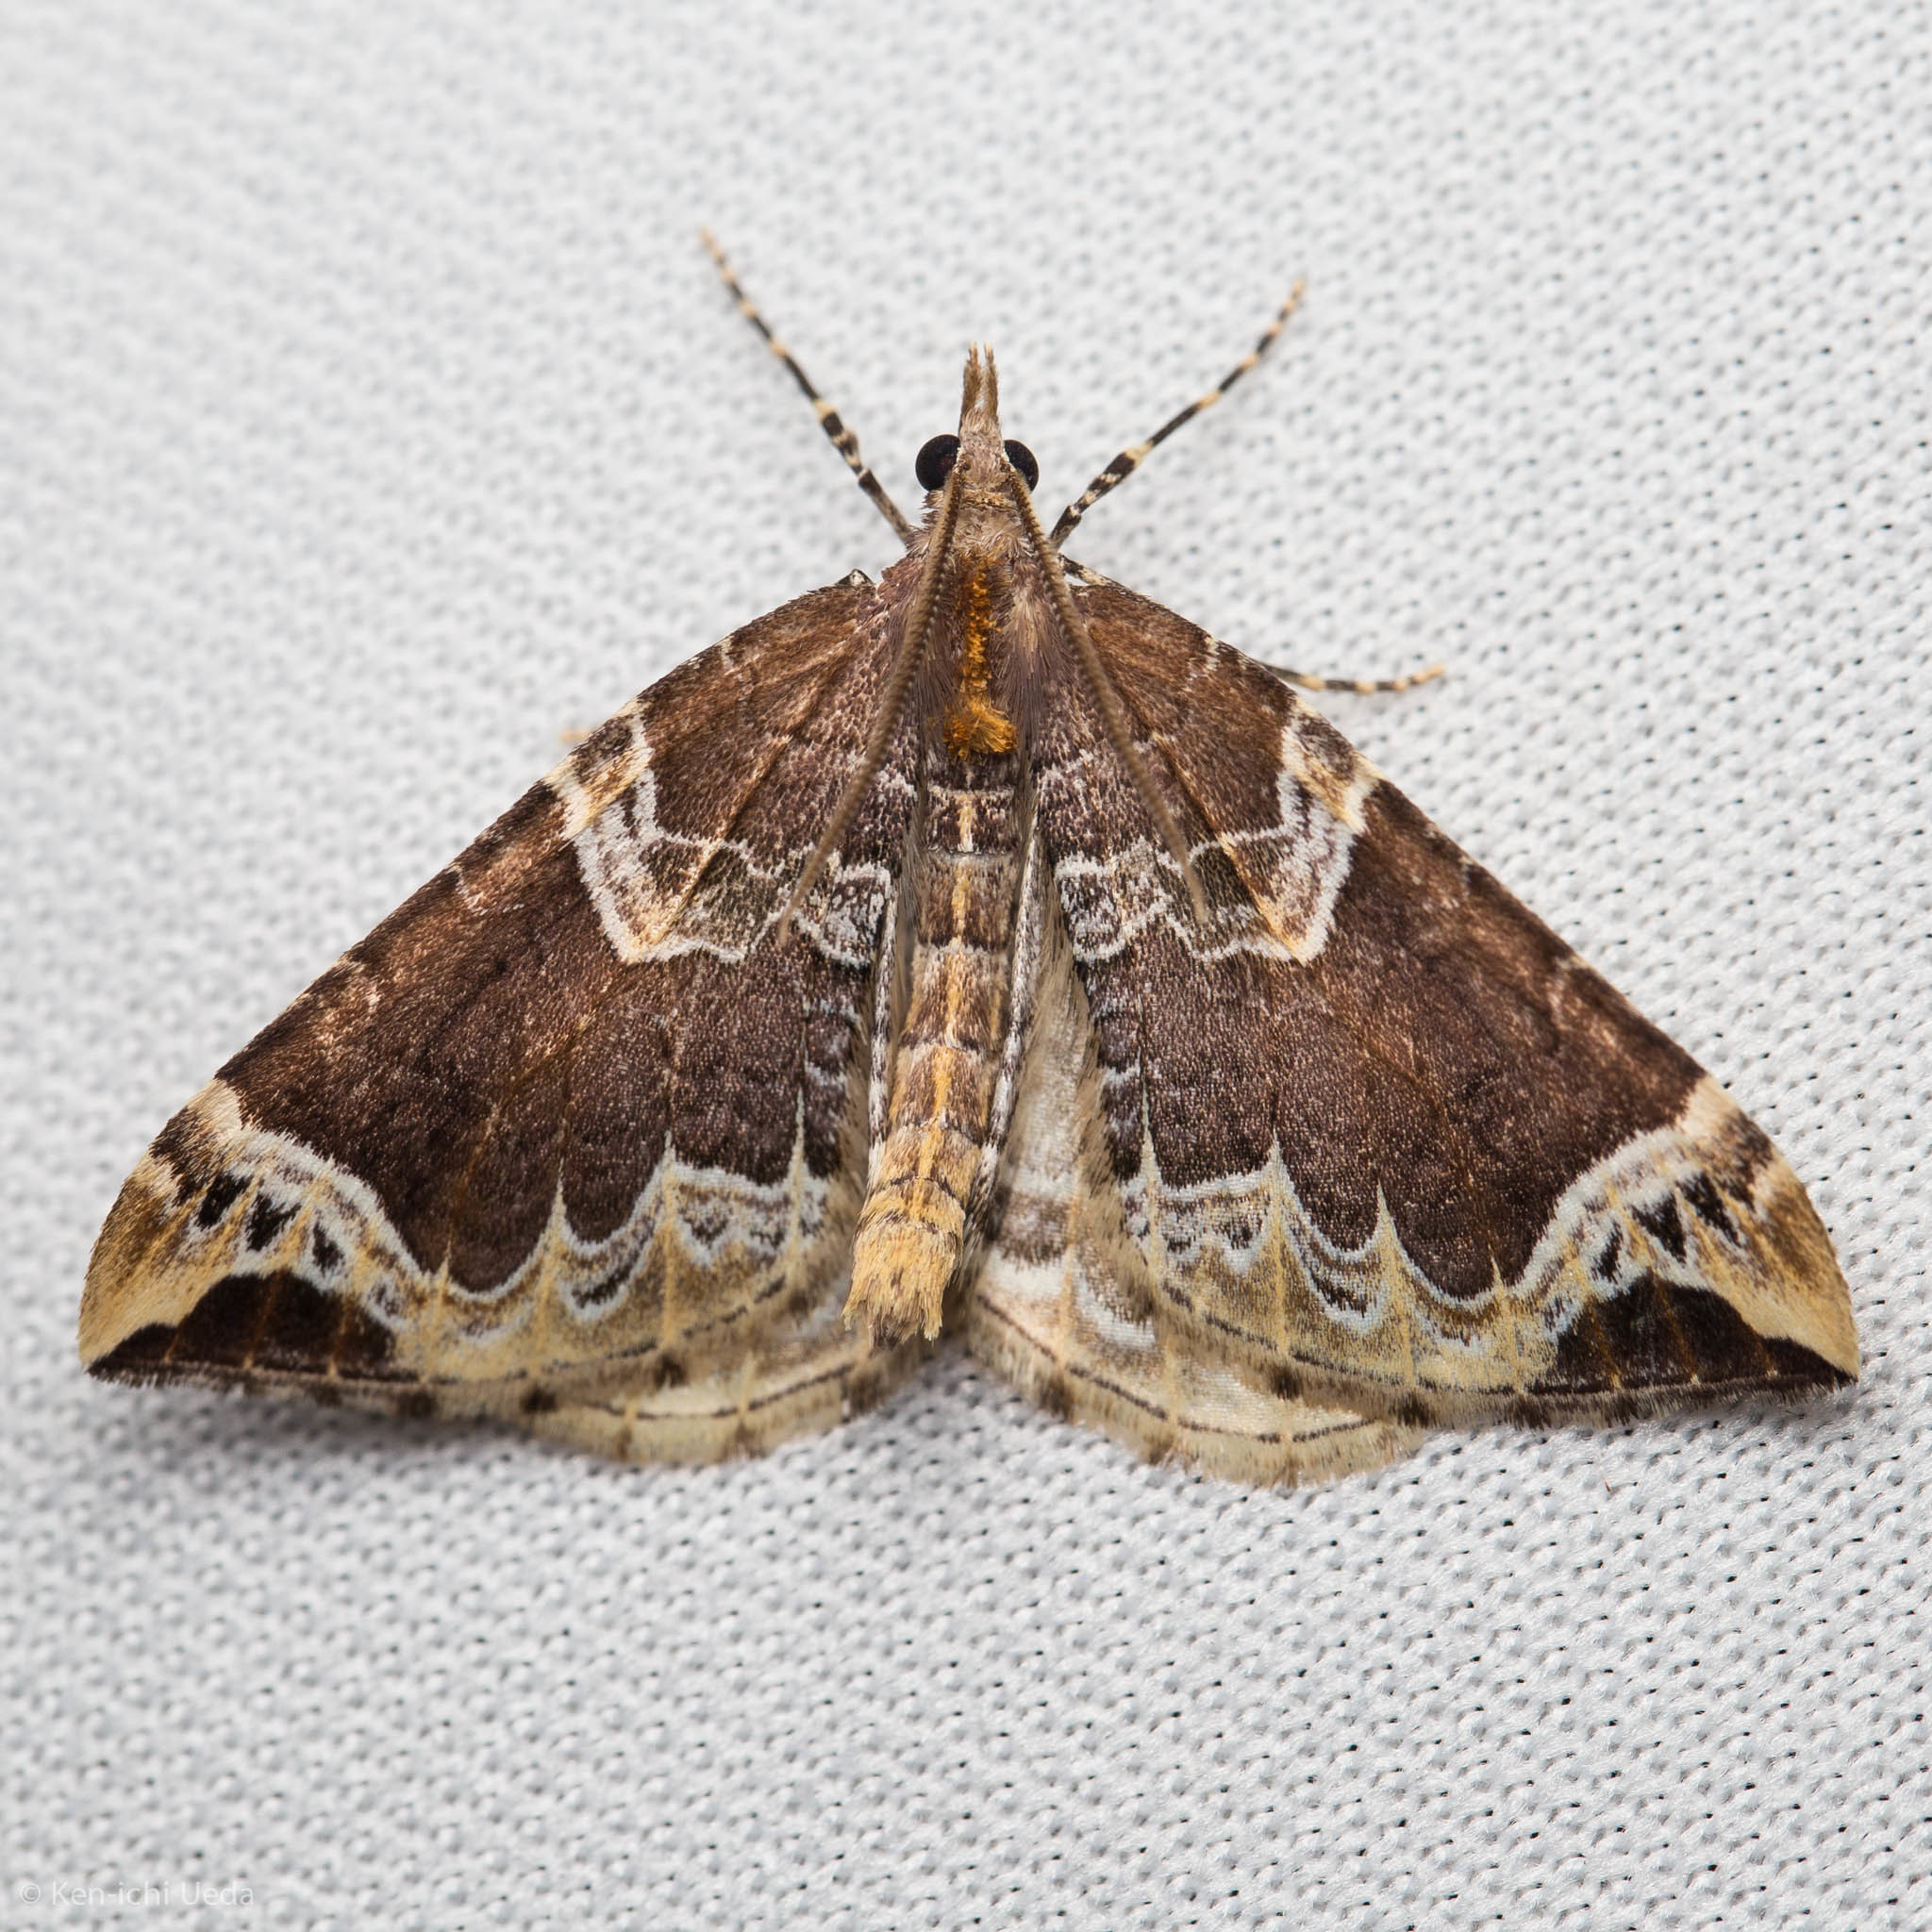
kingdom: Animalia
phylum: Arthropoda
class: Insecta
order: Lepidoptera
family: Geometridae
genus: Eulithis
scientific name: Eulithis xylina
